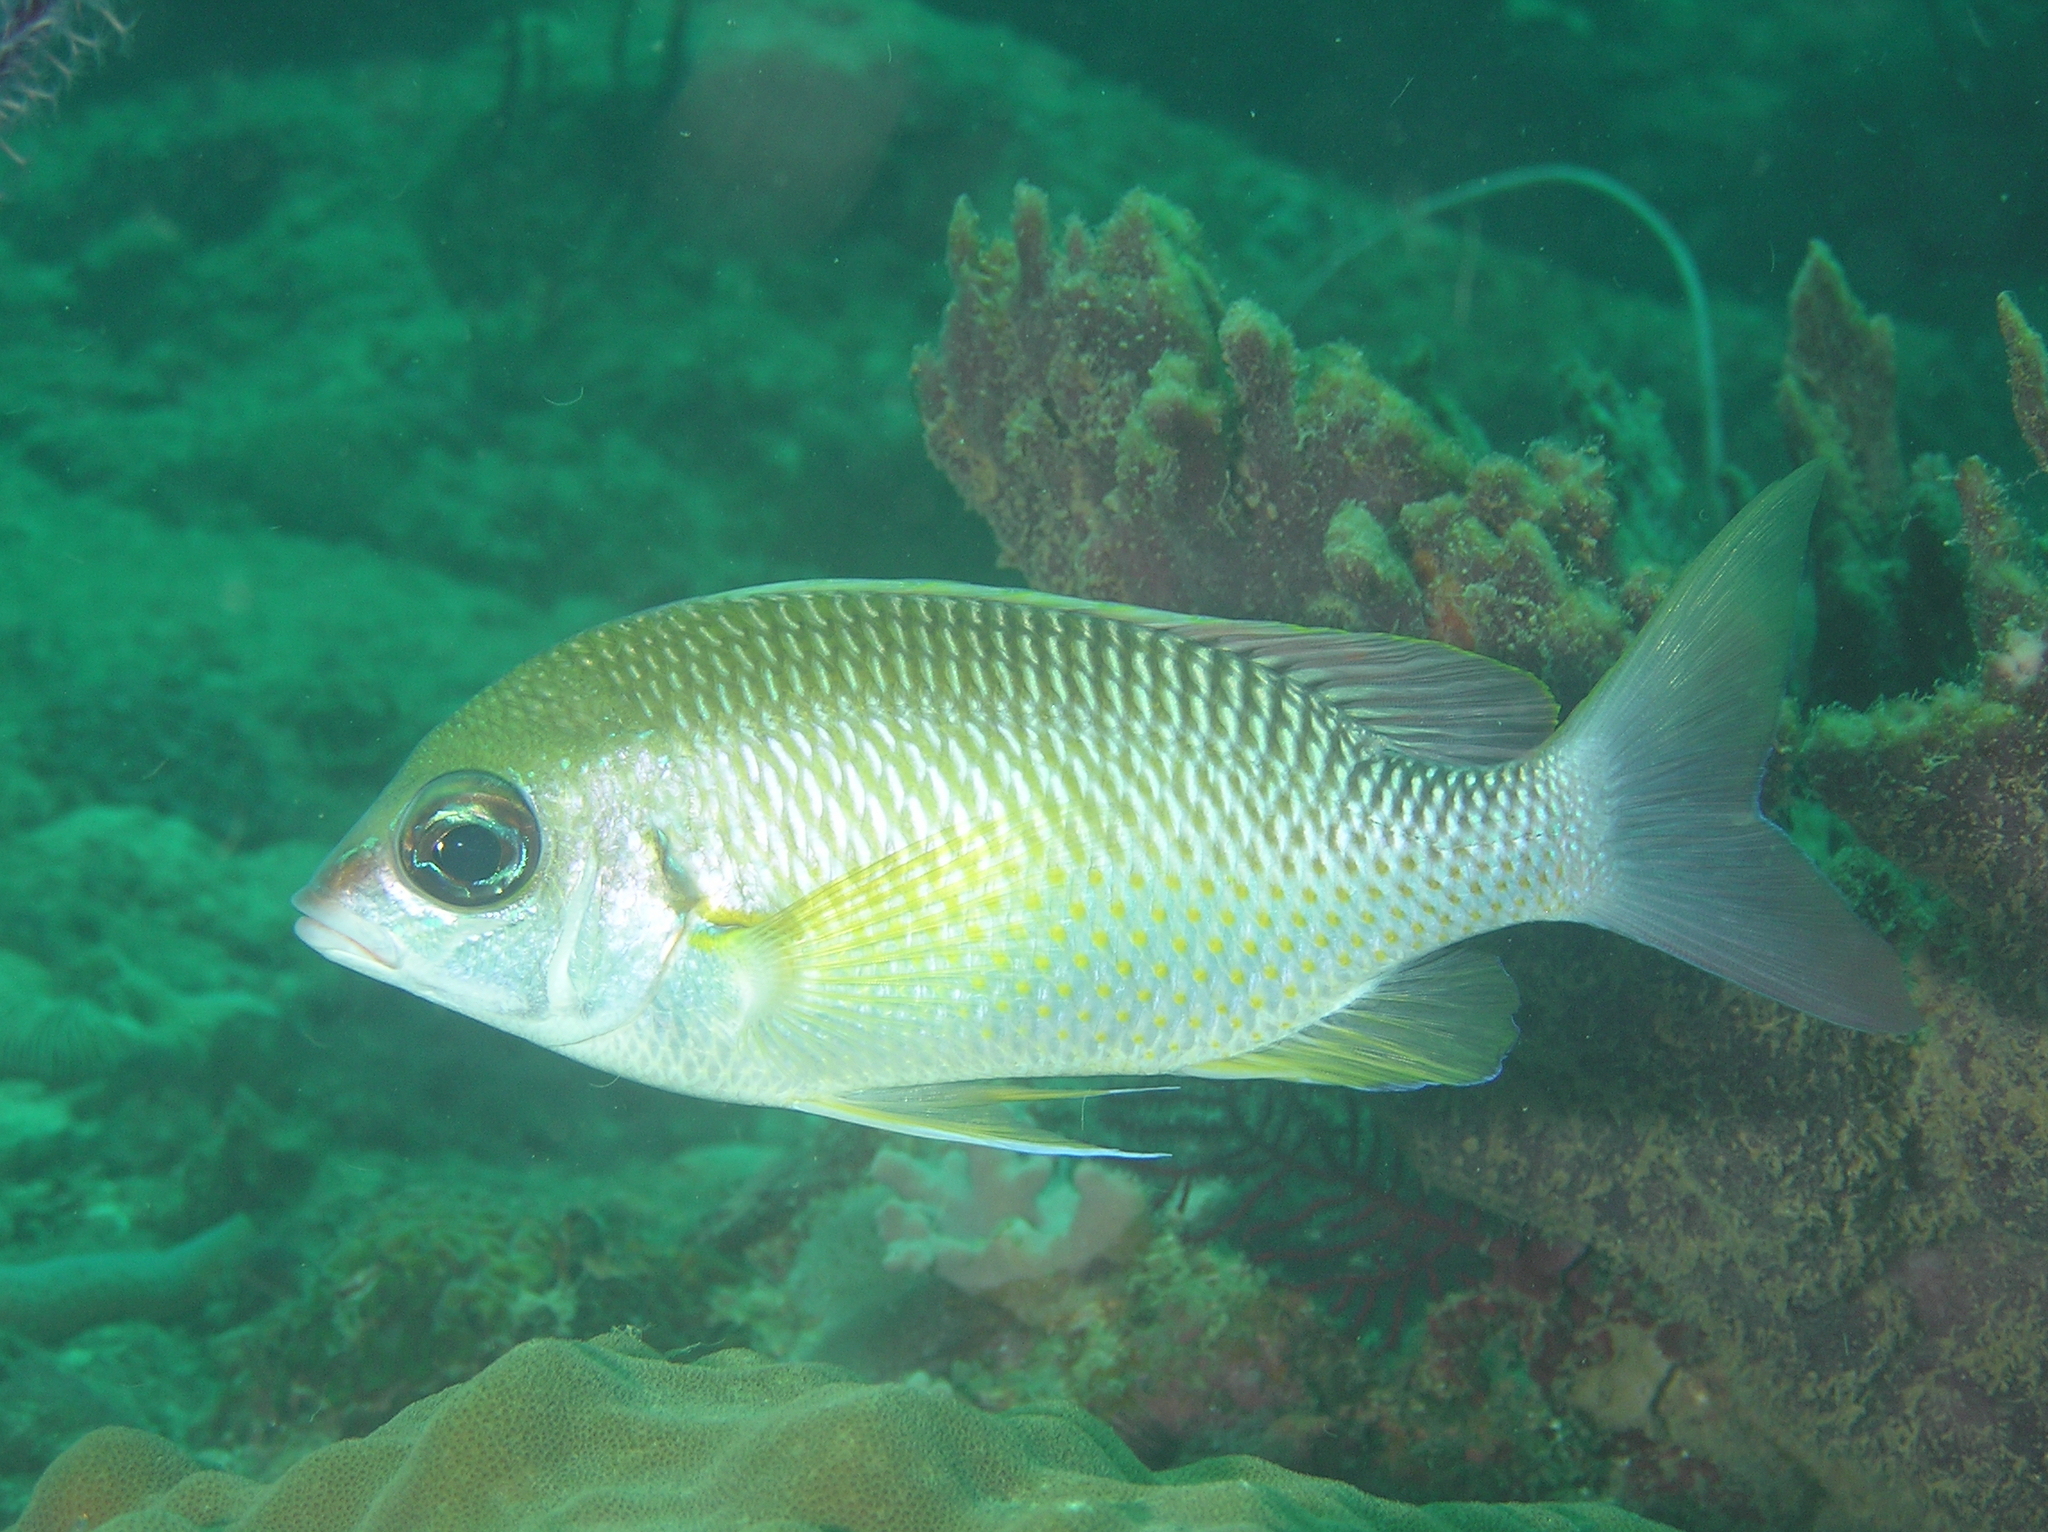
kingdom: Animalia
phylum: Chordata
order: Perciformes
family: Nemipteridae
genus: Scolopsis
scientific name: Scolopsis margaritifera
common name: Pearly monocle bream
